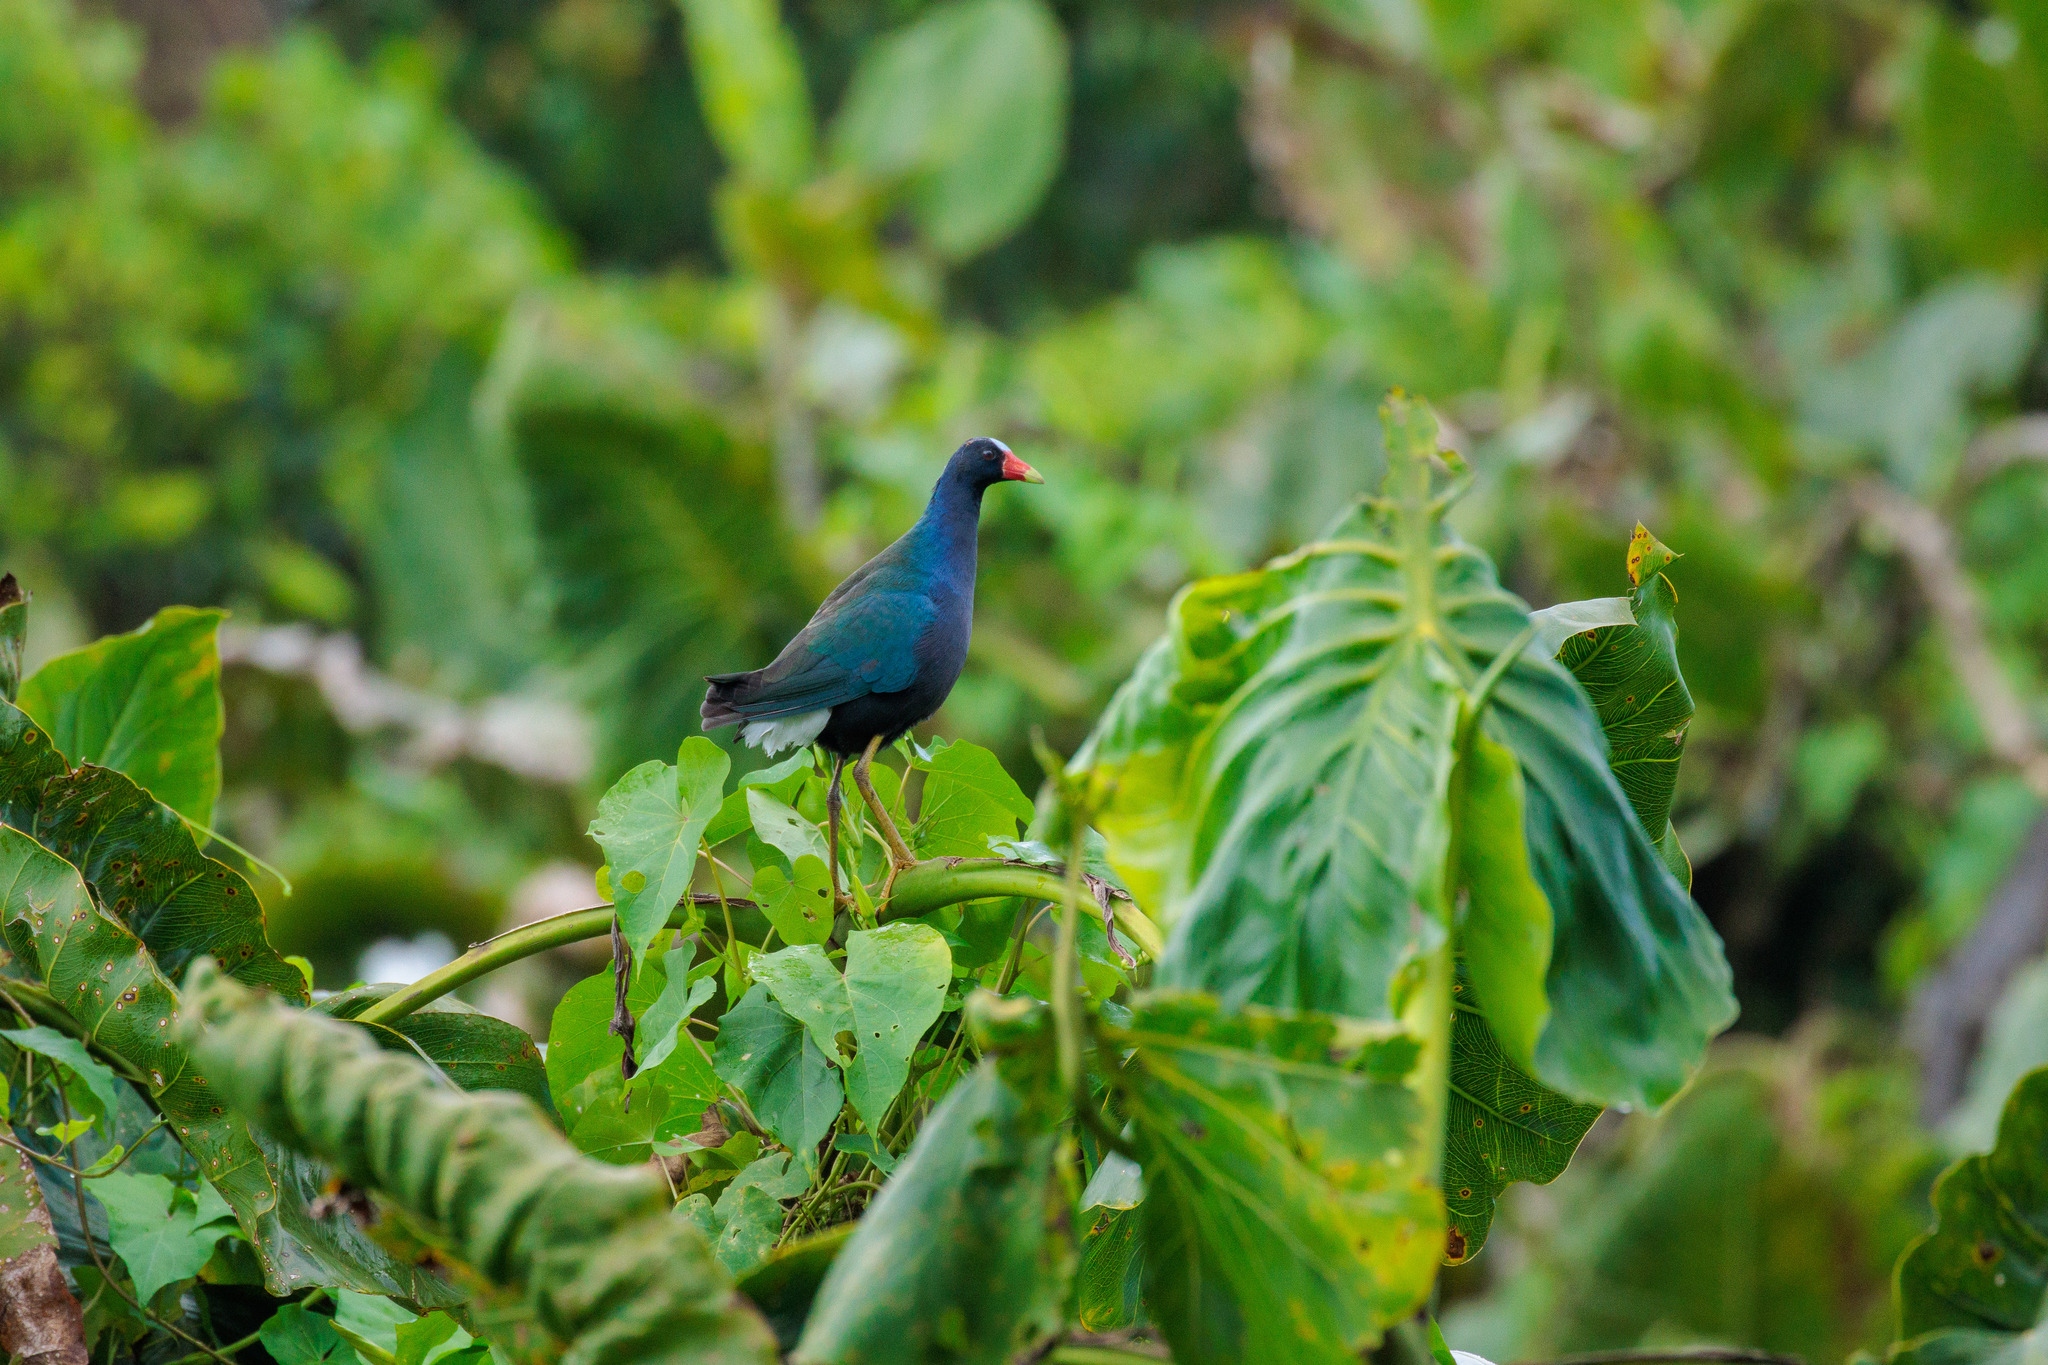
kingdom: Animalia
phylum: Chordata
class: Aves
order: Gruiformes
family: Rallidae
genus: Porphyrio
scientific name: Porphyrio martinica
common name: Purple gallinule
